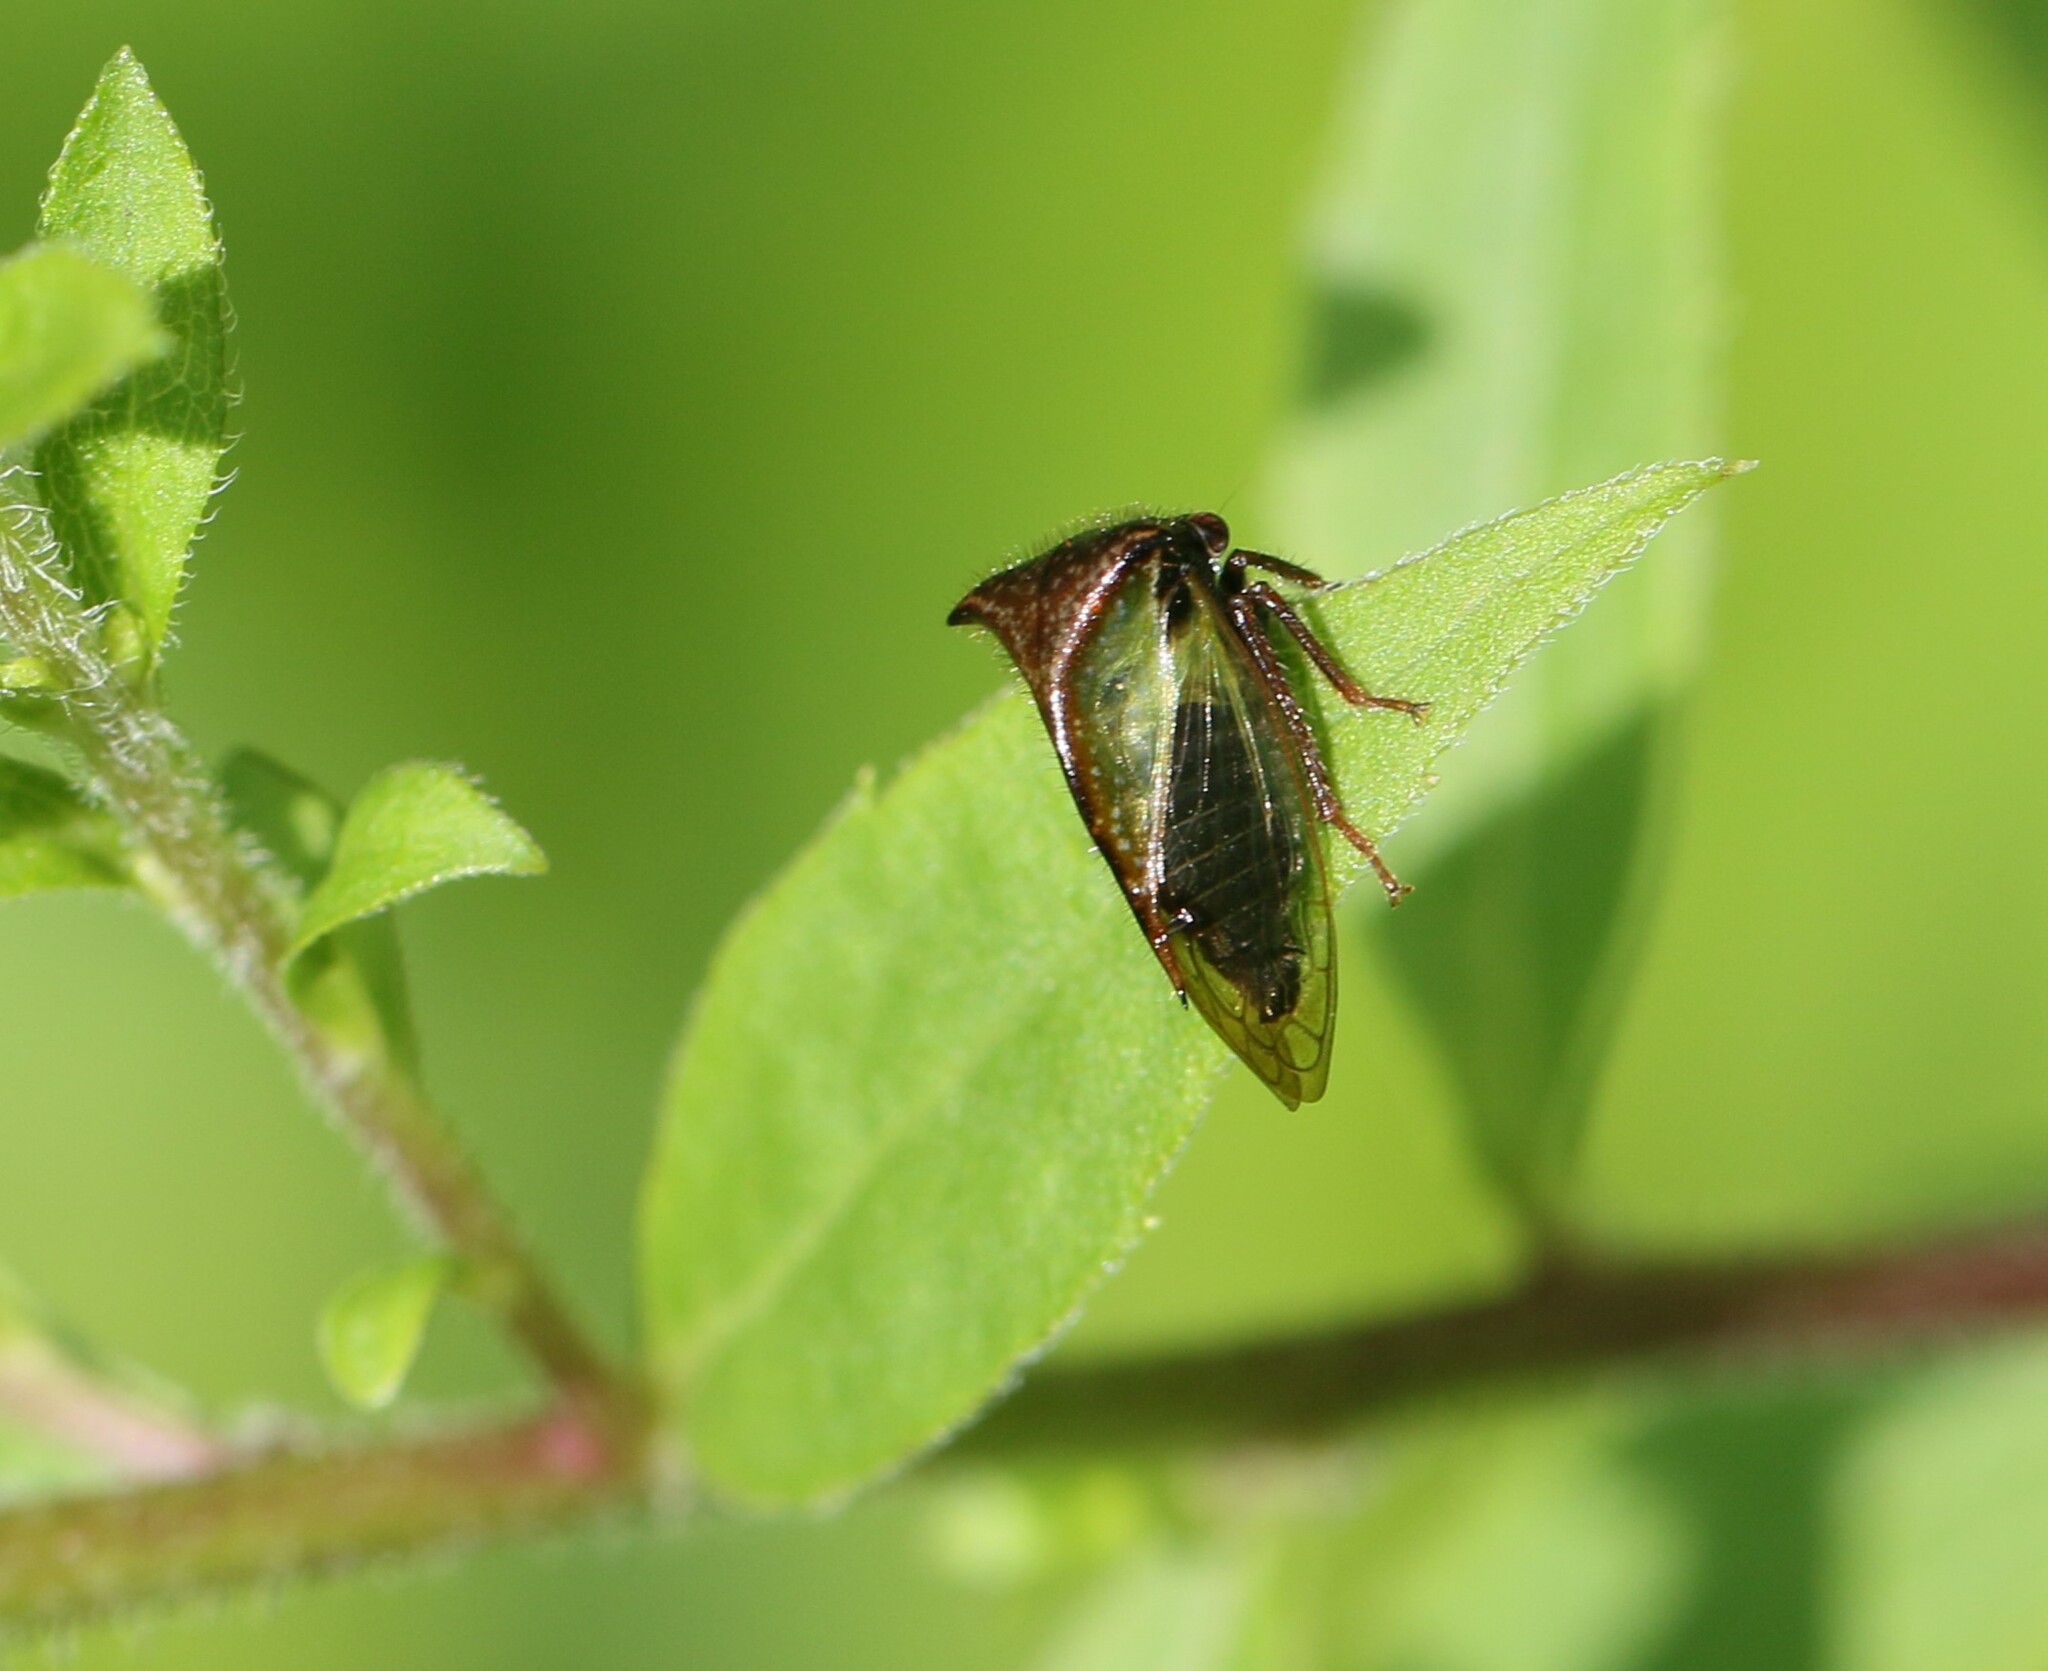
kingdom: Animalia
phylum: Arthropoda
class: Insecta
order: Hemiptera
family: Membracidae
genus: Stictocephala
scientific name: Stictocephala basalis
